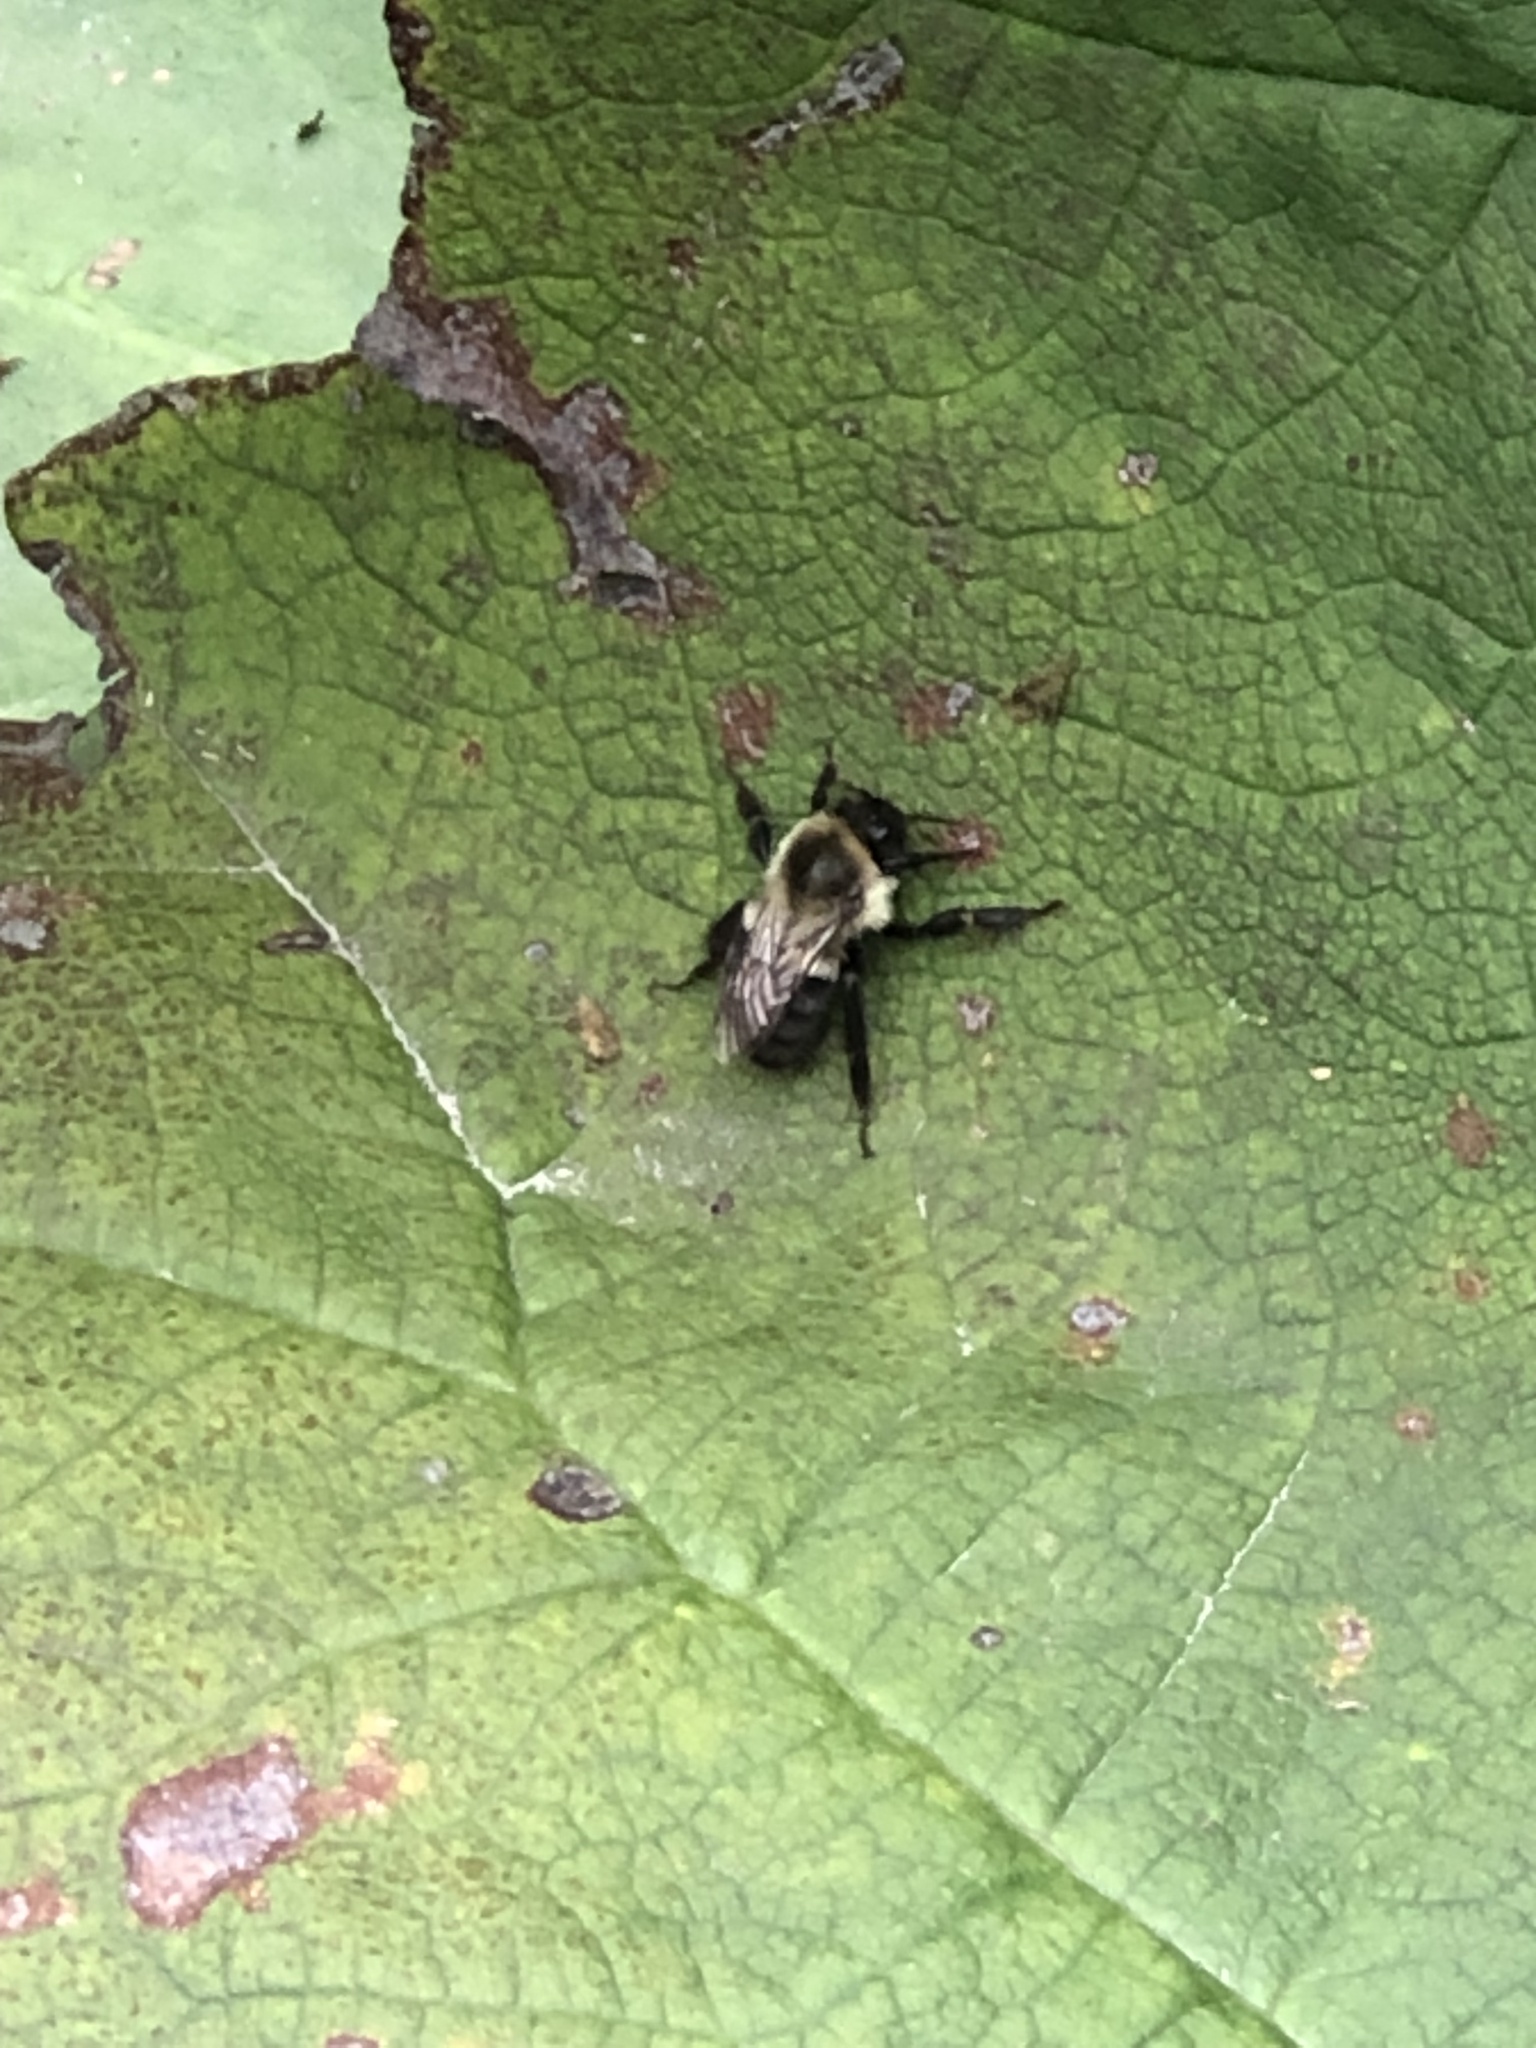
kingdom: Animalia
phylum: Arthropoda
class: Insecta
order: Hymenoptera
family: Apidae
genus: Bombus
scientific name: Bombus impatiens
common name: Common eastern bumble bee
